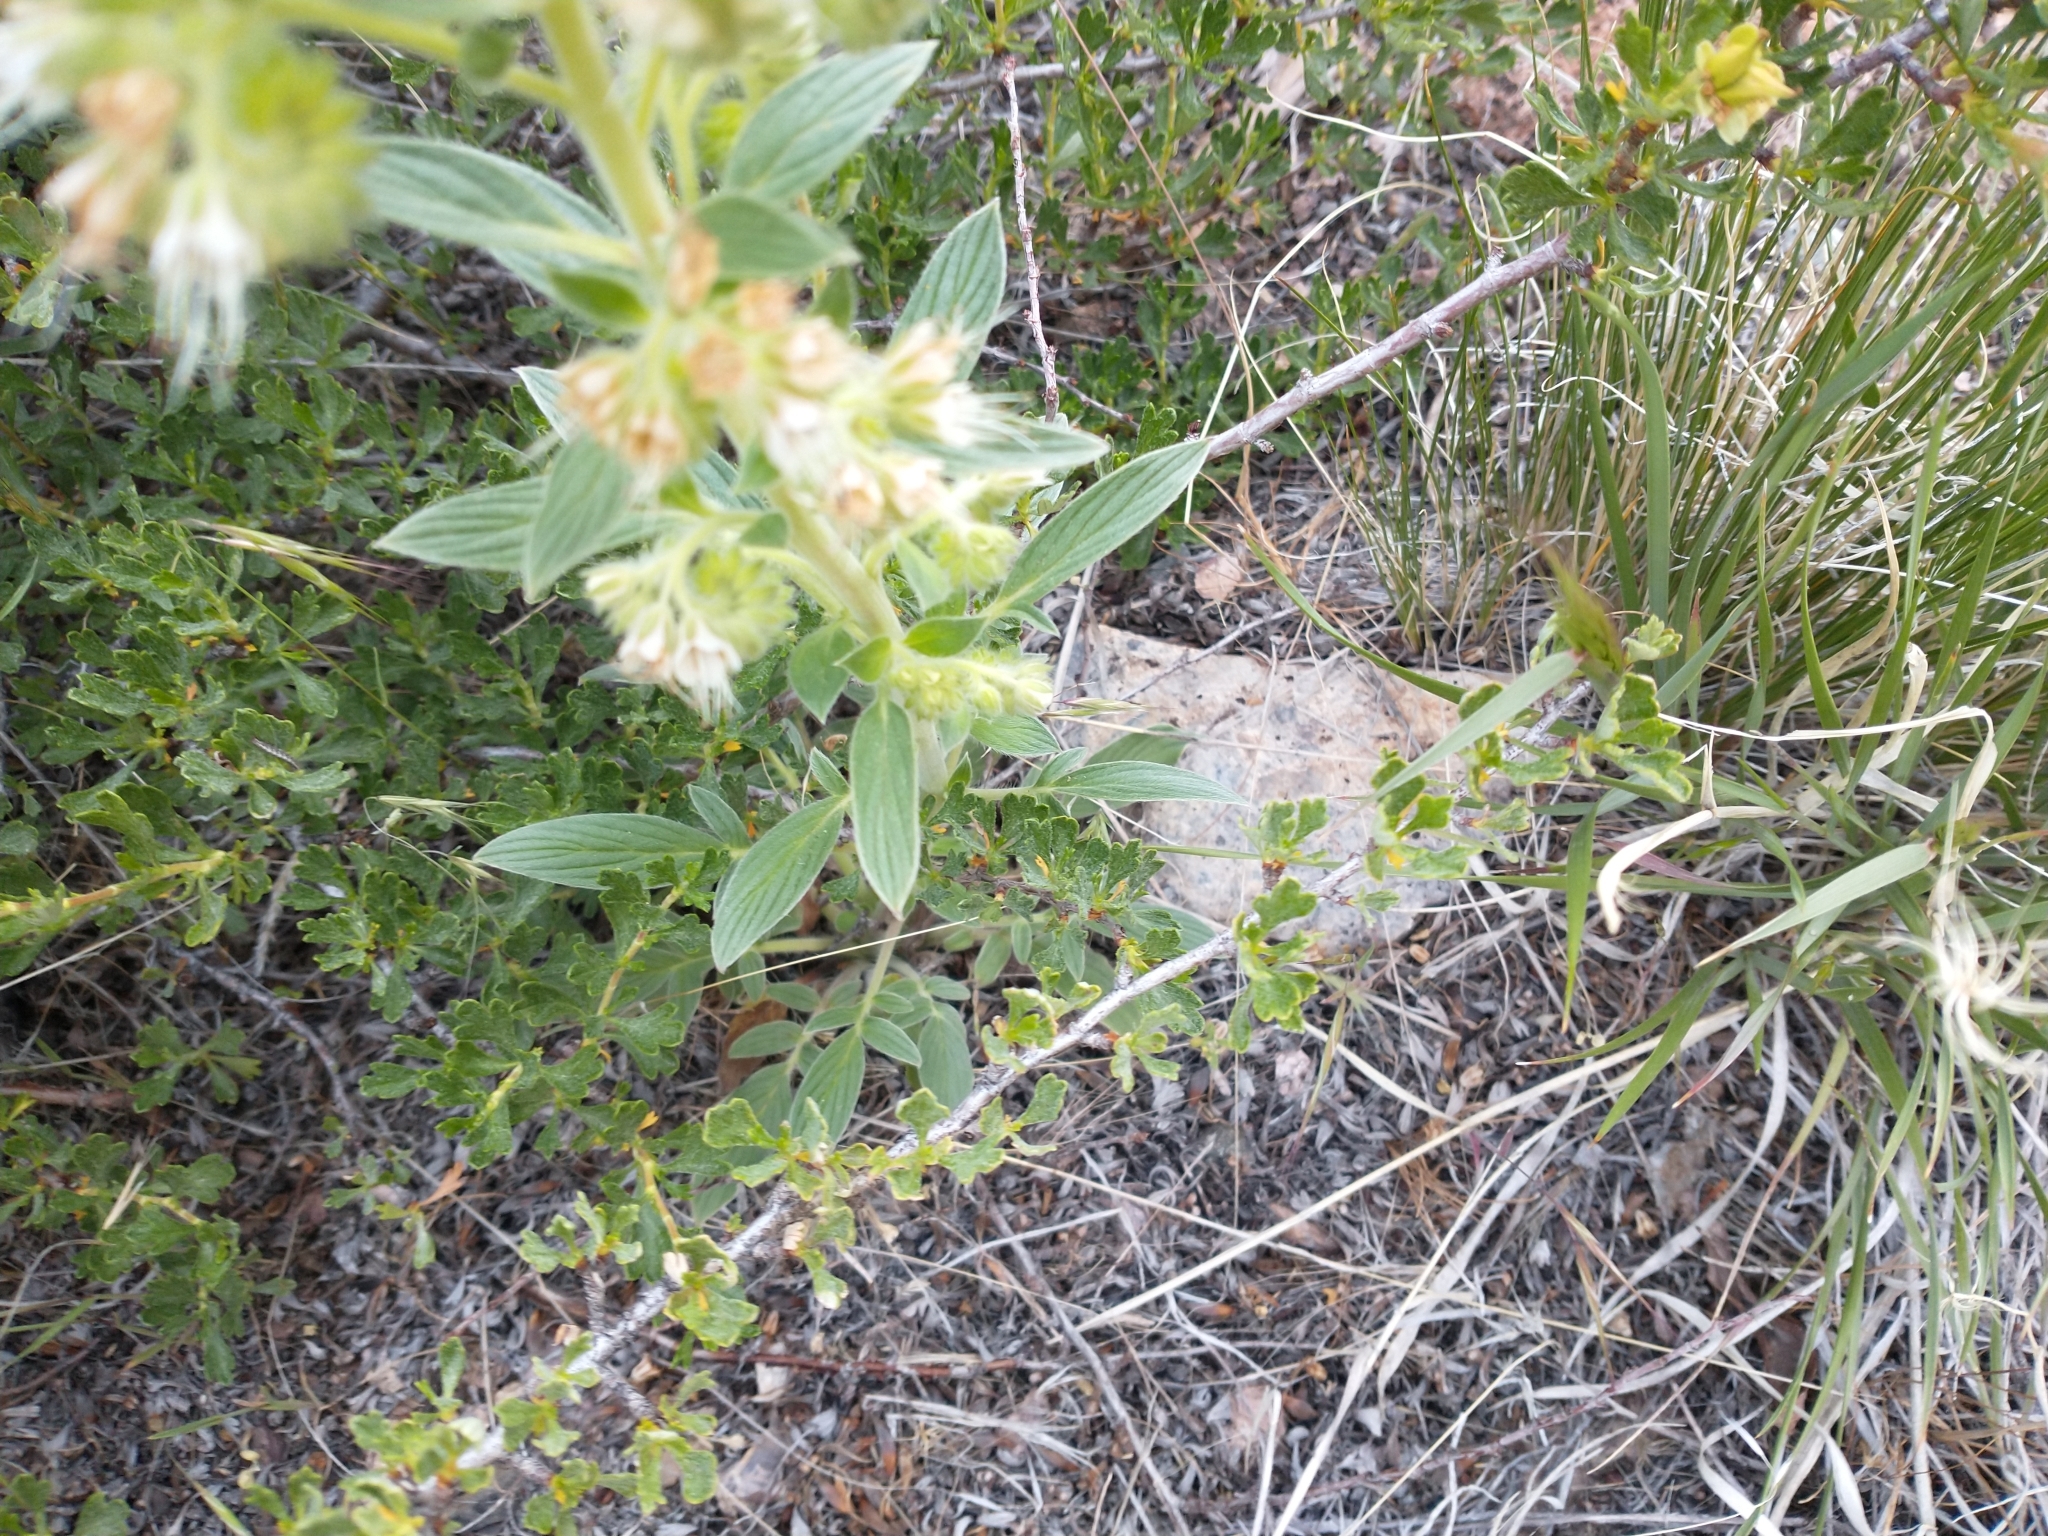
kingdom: Plantae
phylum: Tracheophyta
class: Magnoliopsida
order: Boraginales
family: Hydrophyllaceae
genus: Phacelia
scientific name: Phacelia heterophylla
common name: Variable-leaved phacelia
